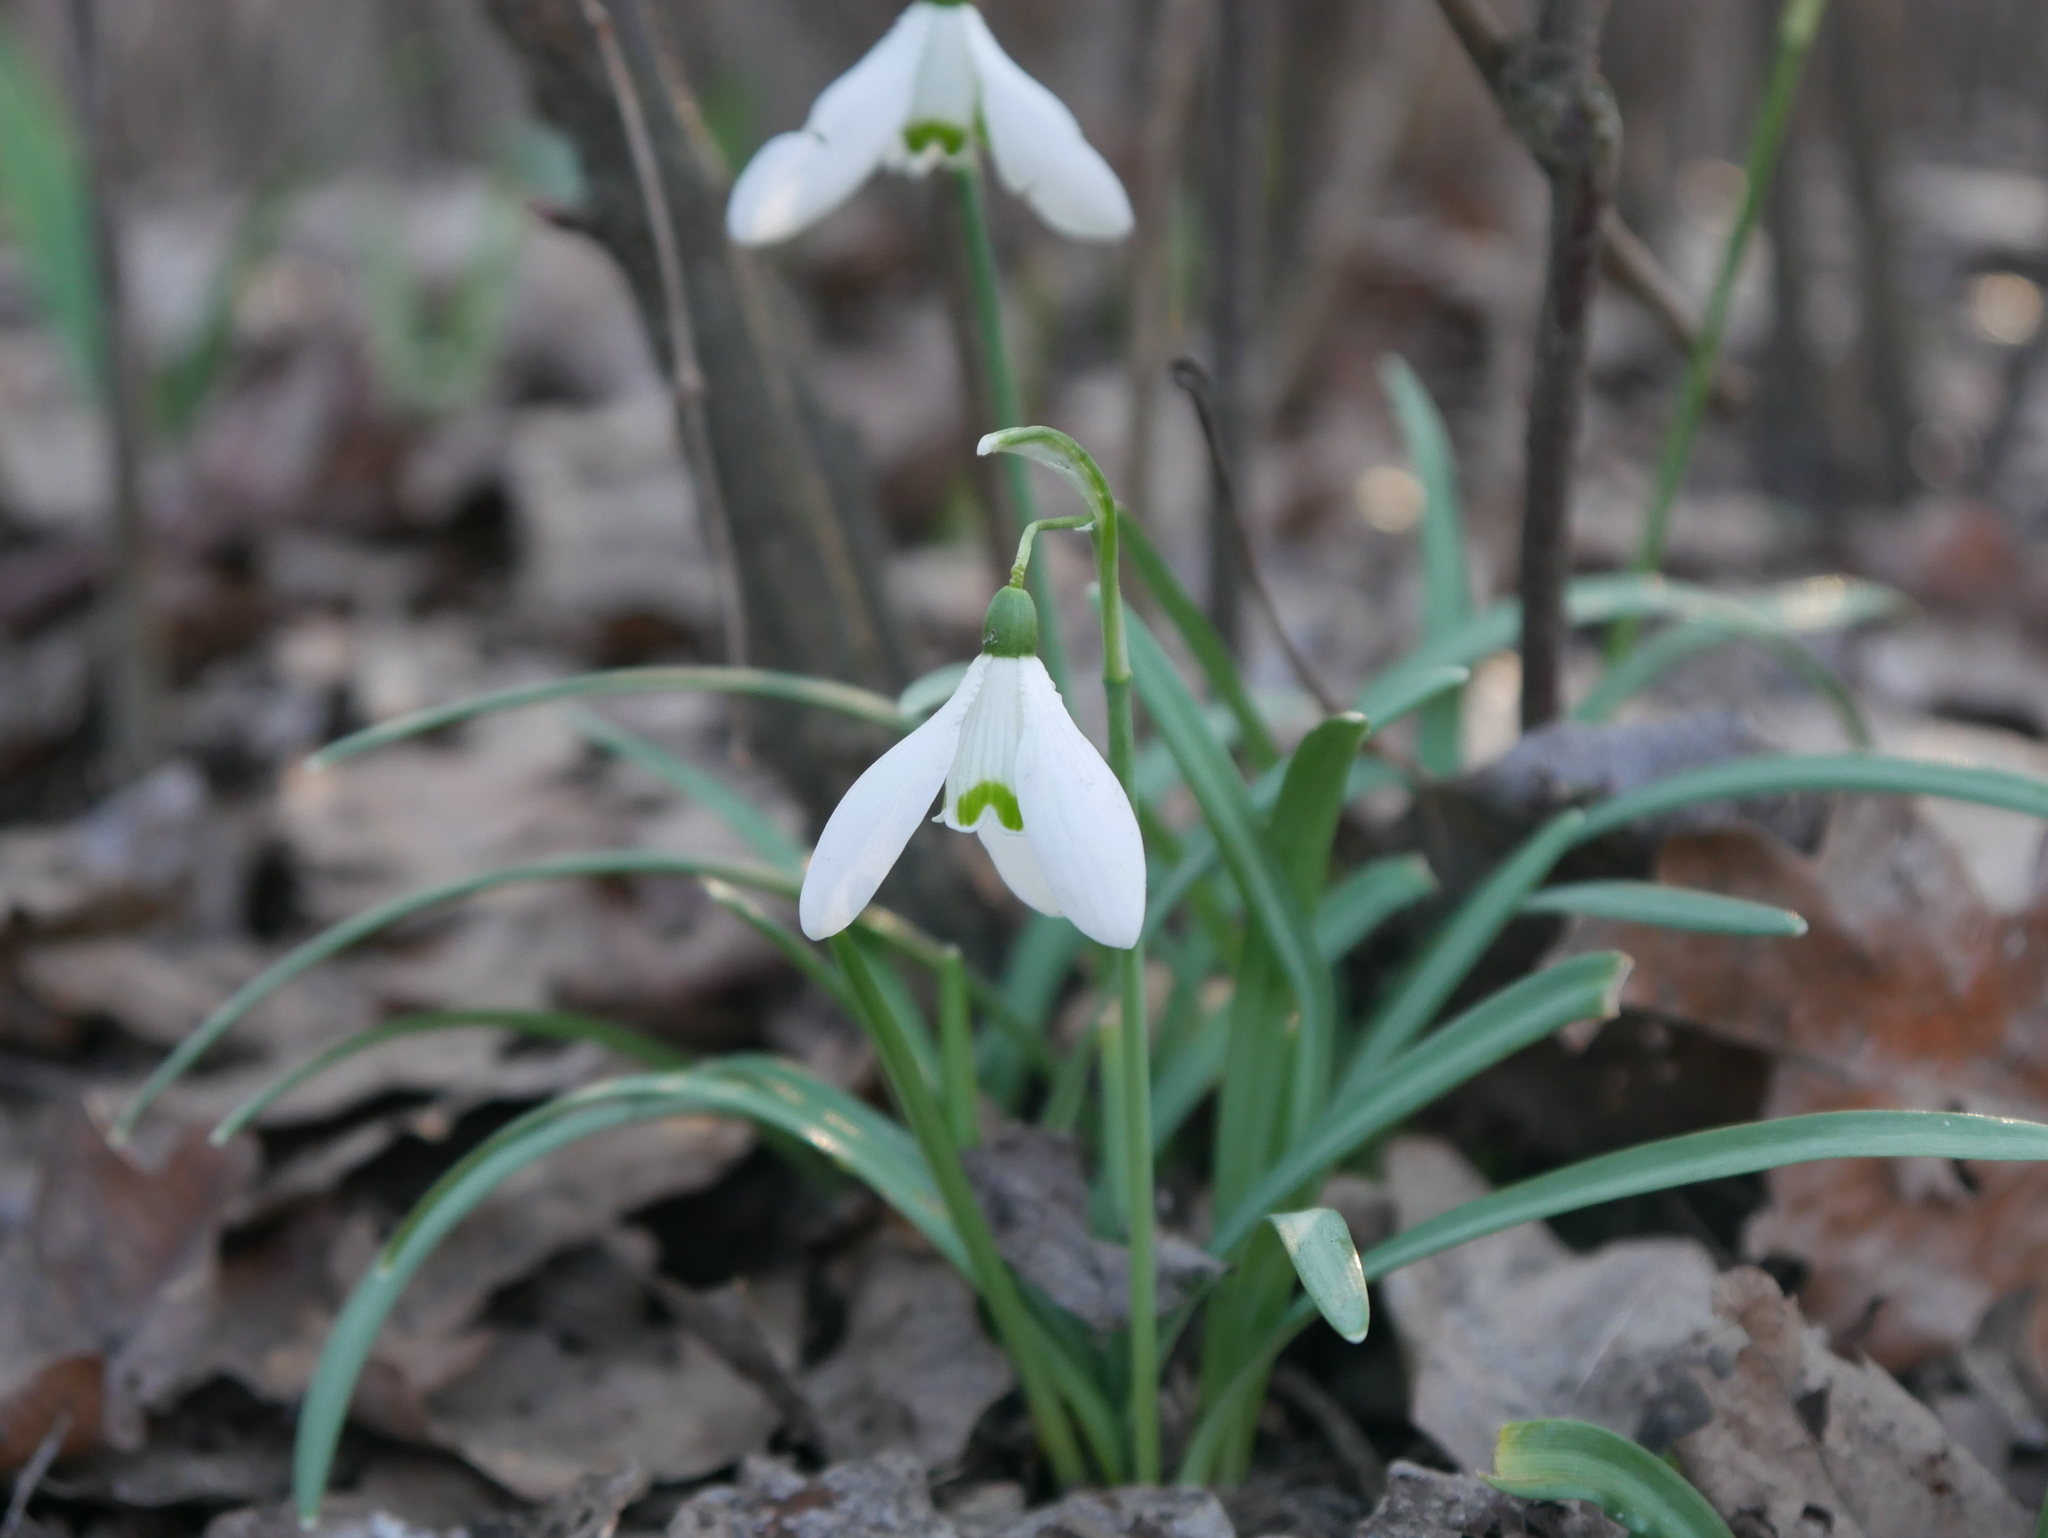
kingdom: Plantae
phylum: Tracheophyta
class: Liliopsida
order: Asparagales
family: Amaryllidaceae
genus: Galanthus
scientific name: Galanthus nivalis
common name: Snowdrop
